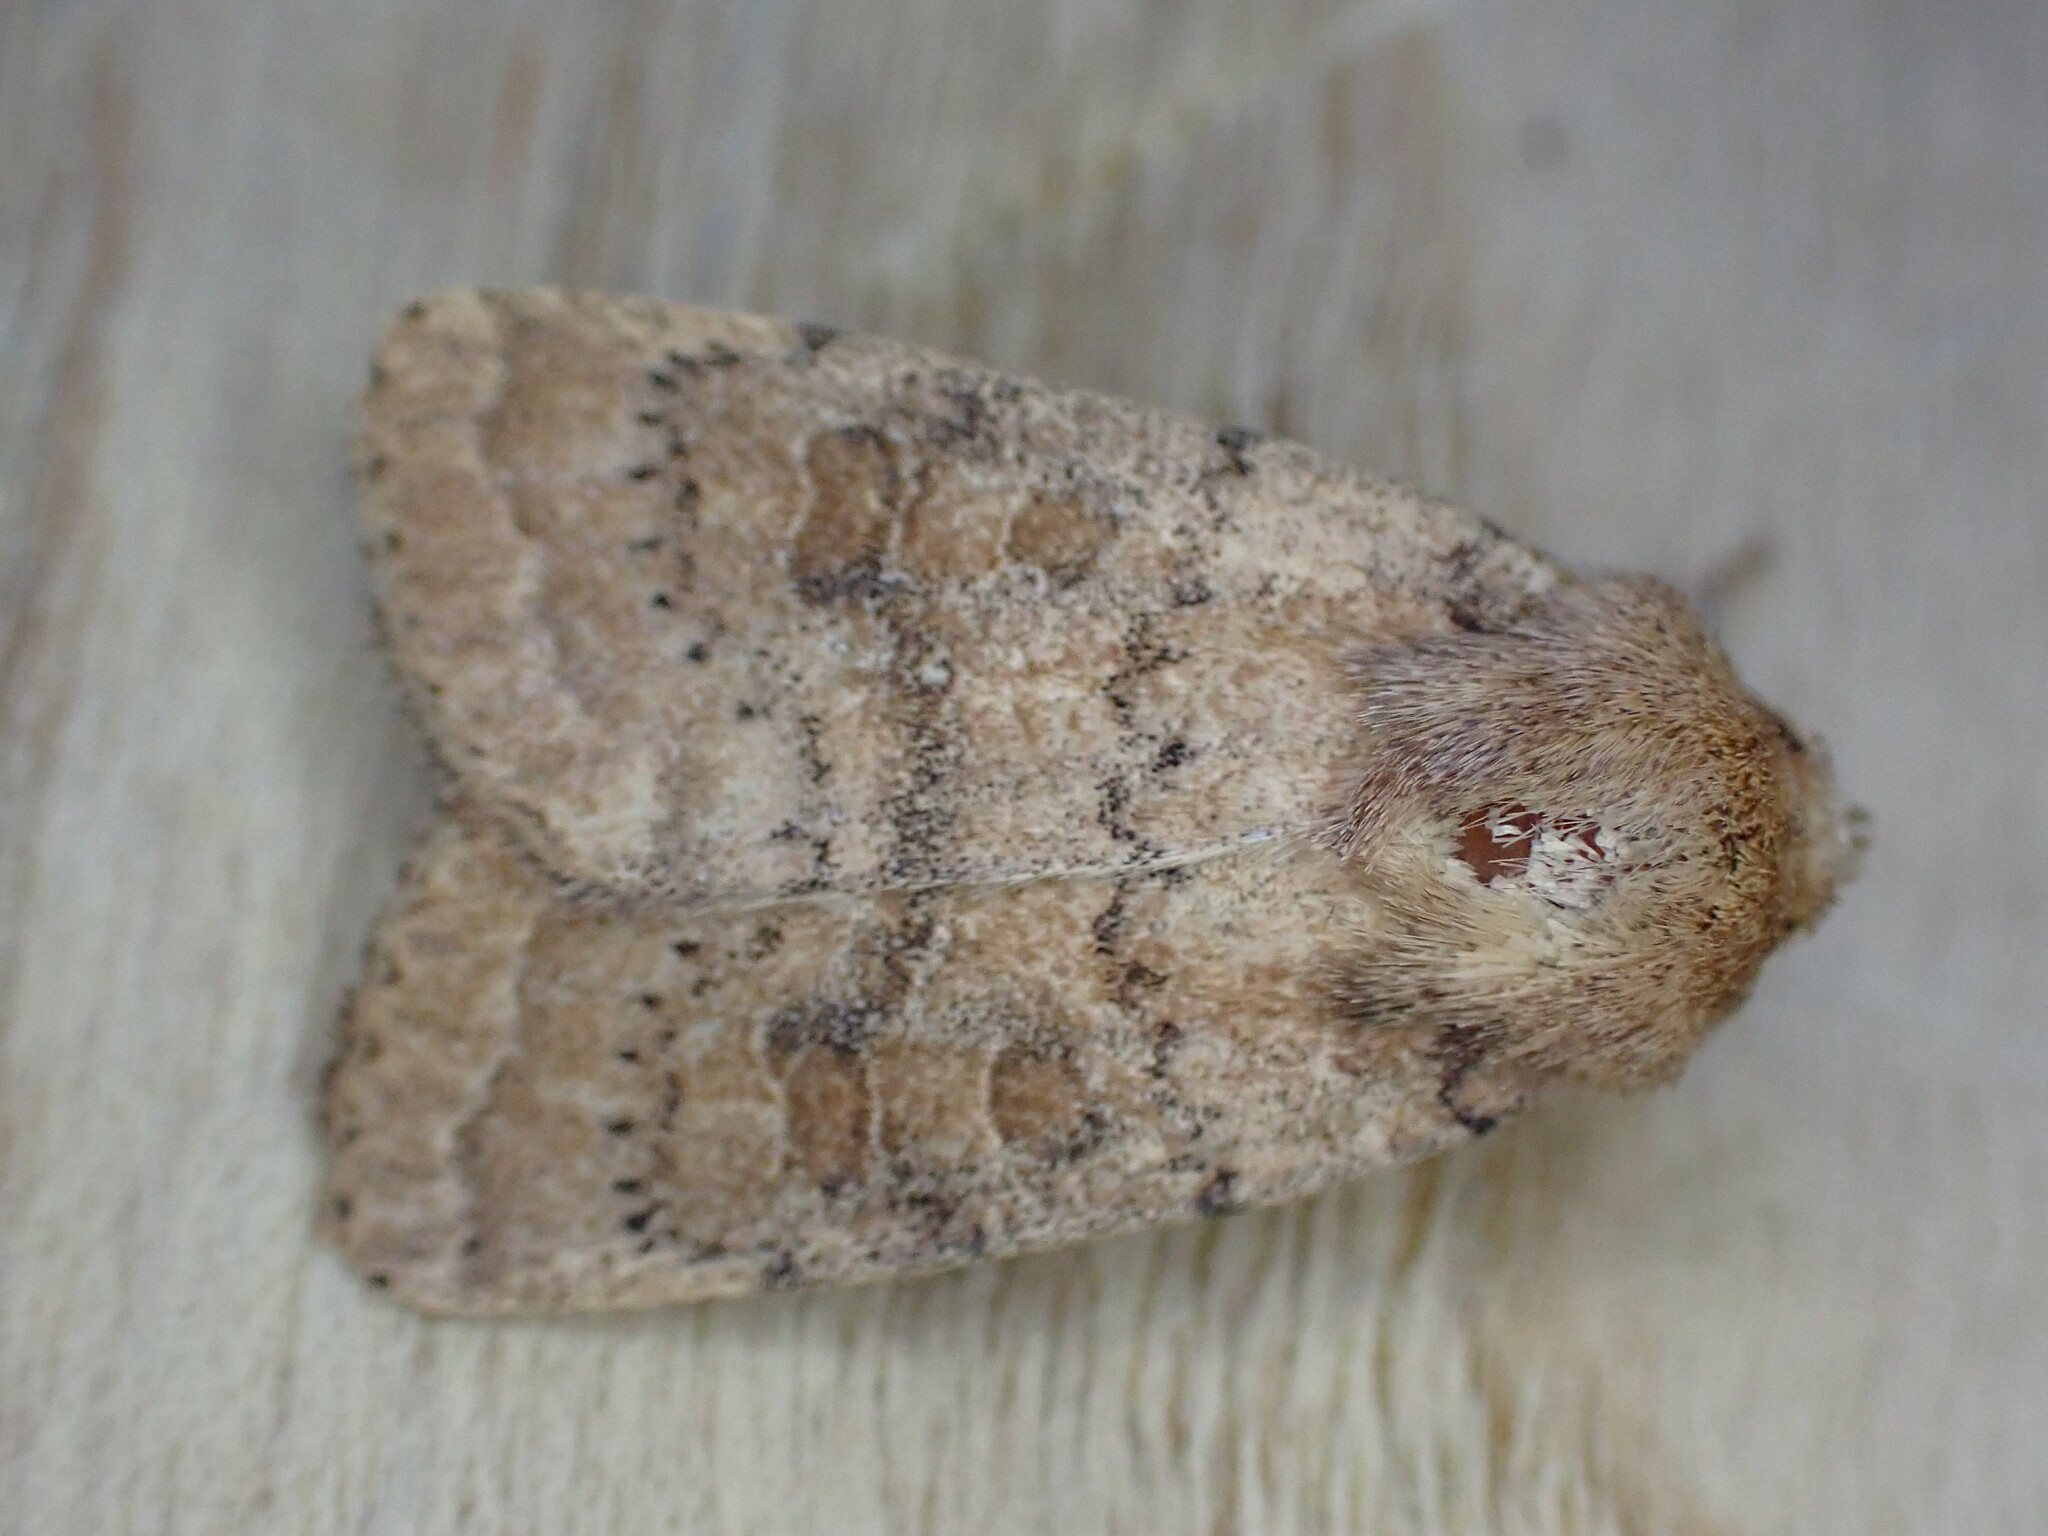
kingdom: Animalia
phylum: Arthropoda
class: Insecta
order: Lepidoptera
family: Noctuidae
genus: Hoplodrina
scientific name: Hoplodrina octogenaria
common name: Uncertain
